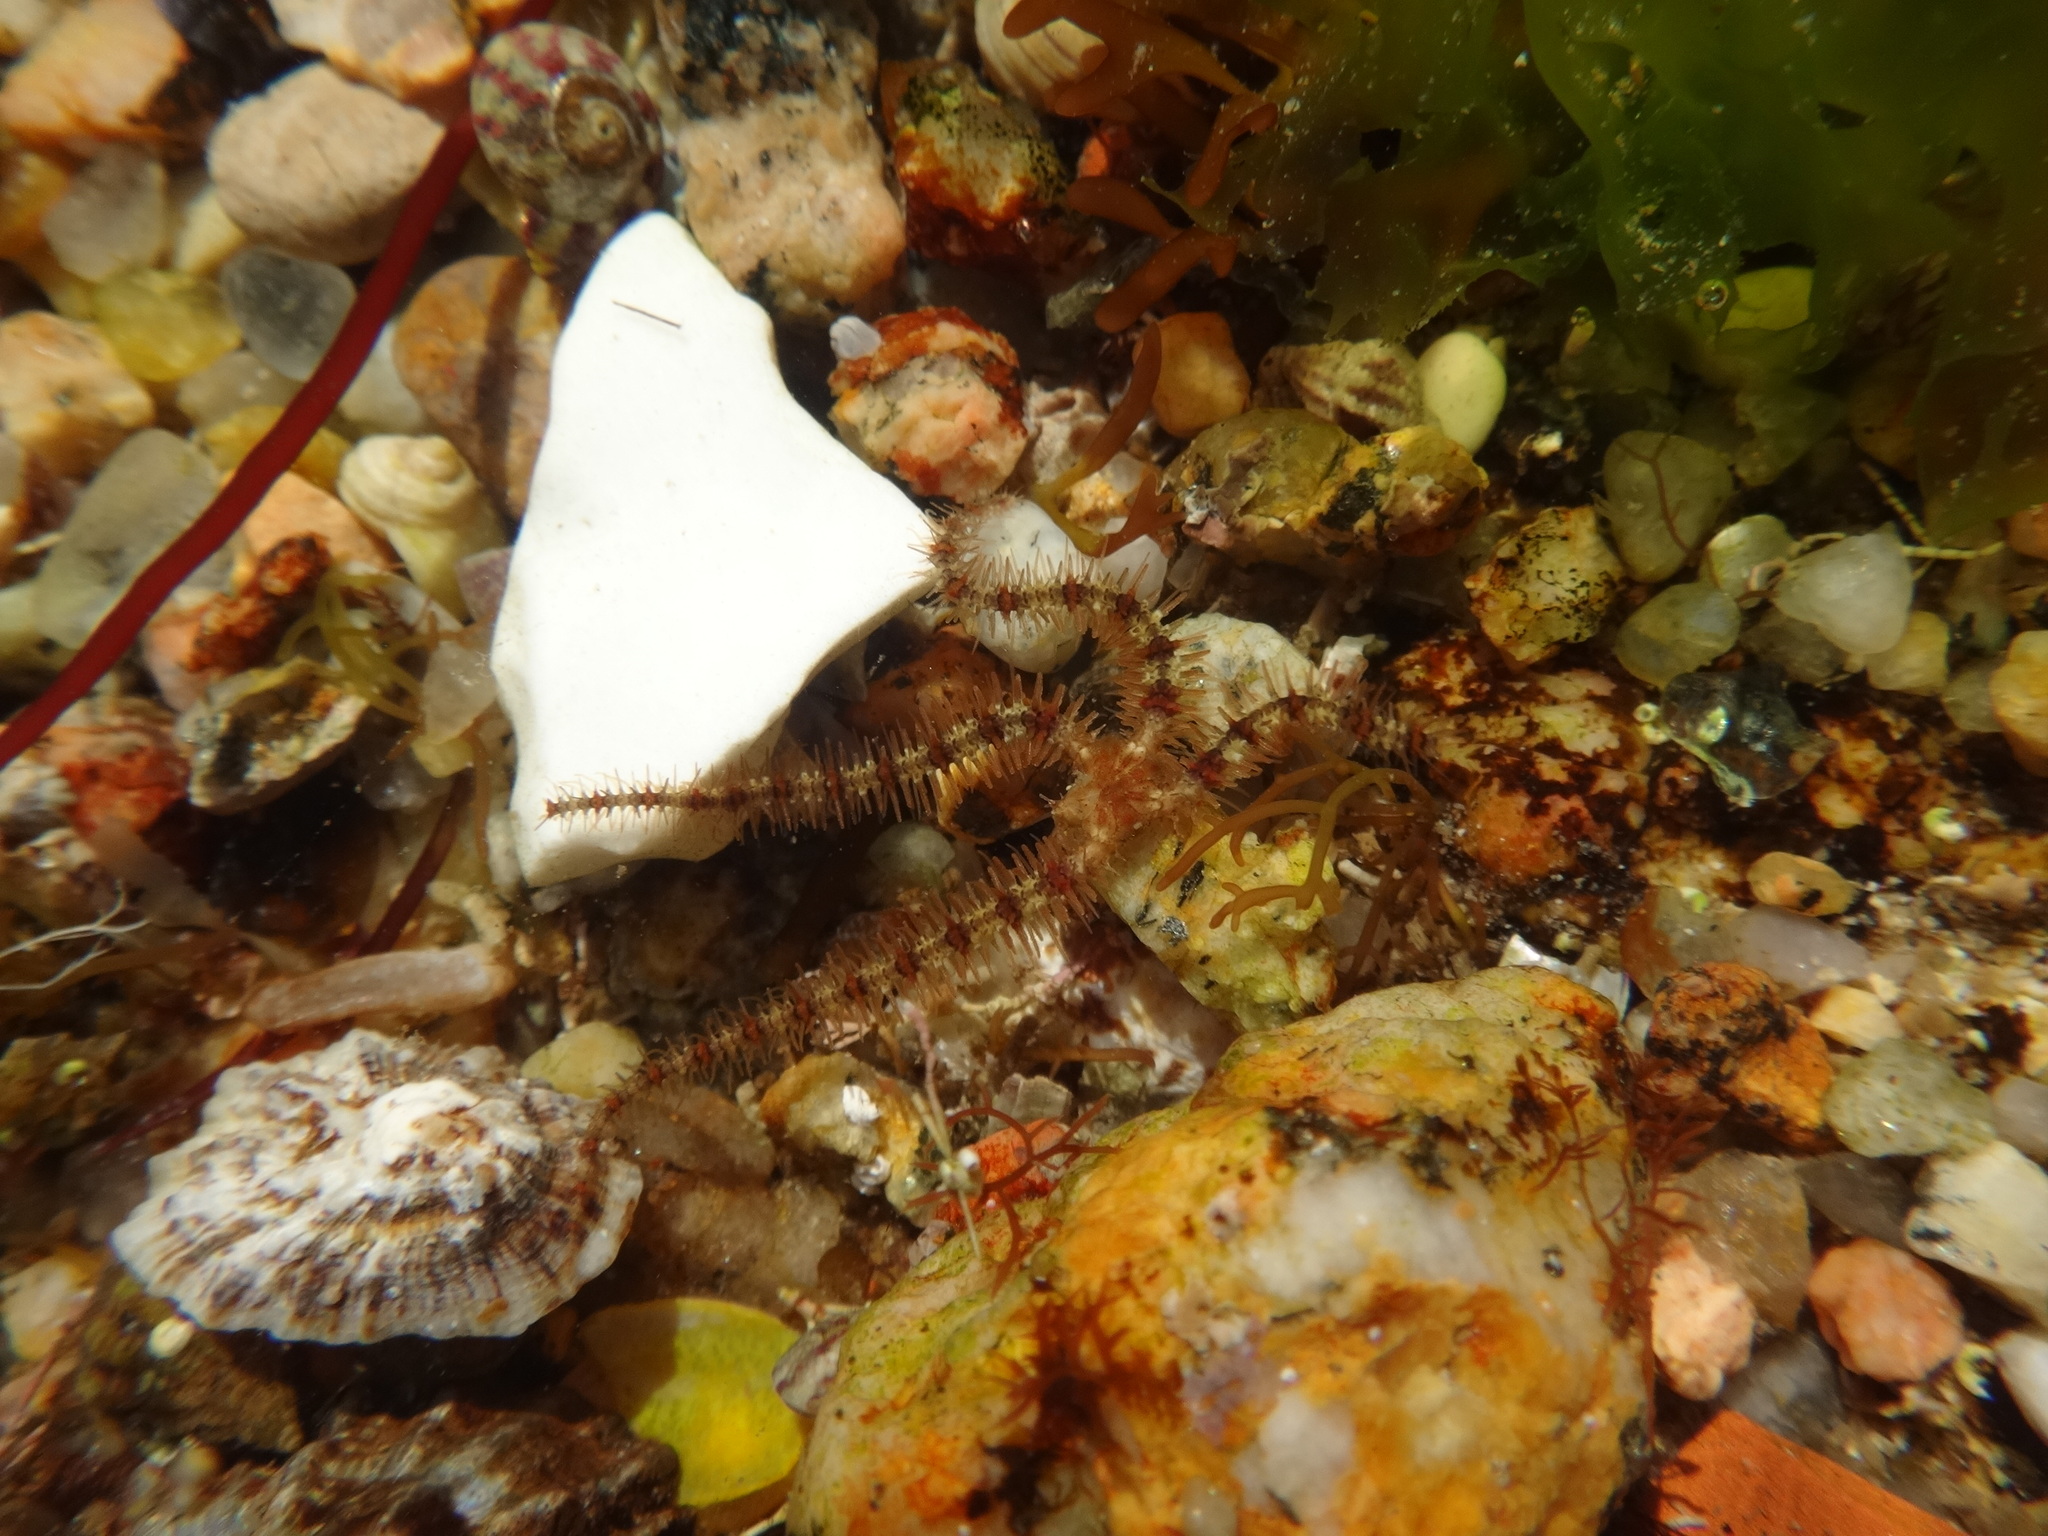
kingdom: Animalia
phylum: Echinodermata
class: Ophiuroidea
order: Amphilepidida
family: Ophiotrichidae
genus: Ophiothrix
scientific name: Ophiothrix fragilis
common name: Common brittlestar
